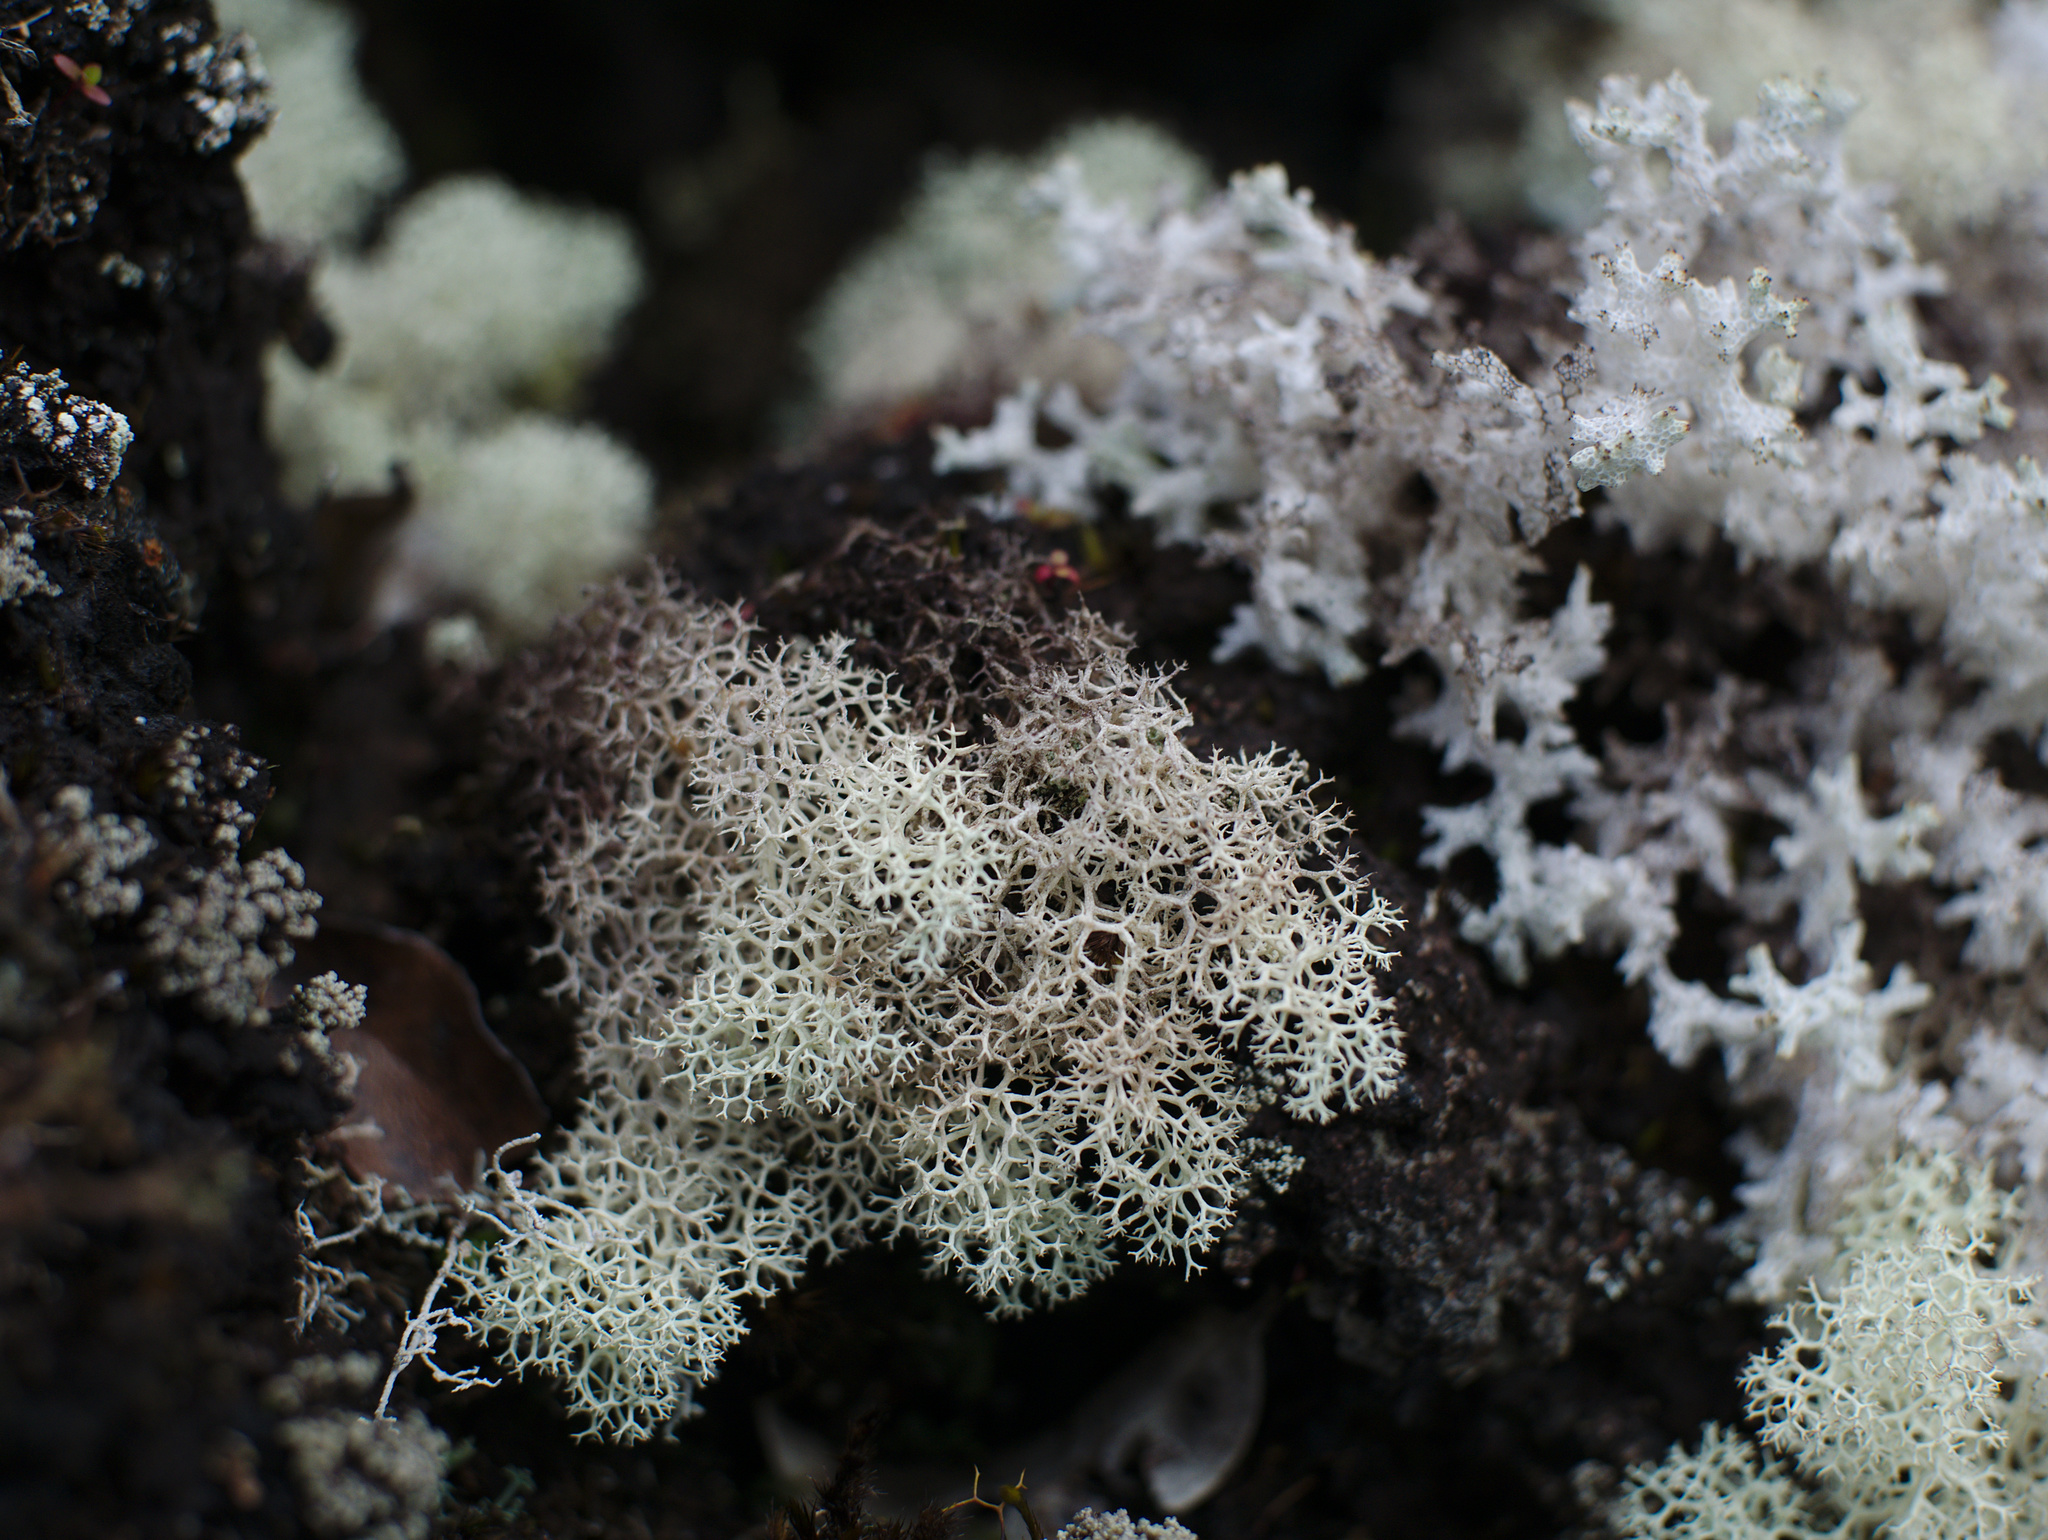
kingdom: Fungi
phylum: Ascomycota
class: Lecanoromycetes
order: Lecanorales
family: Cladoniaceae
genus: Cladonia
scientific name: Cladonia confusa
